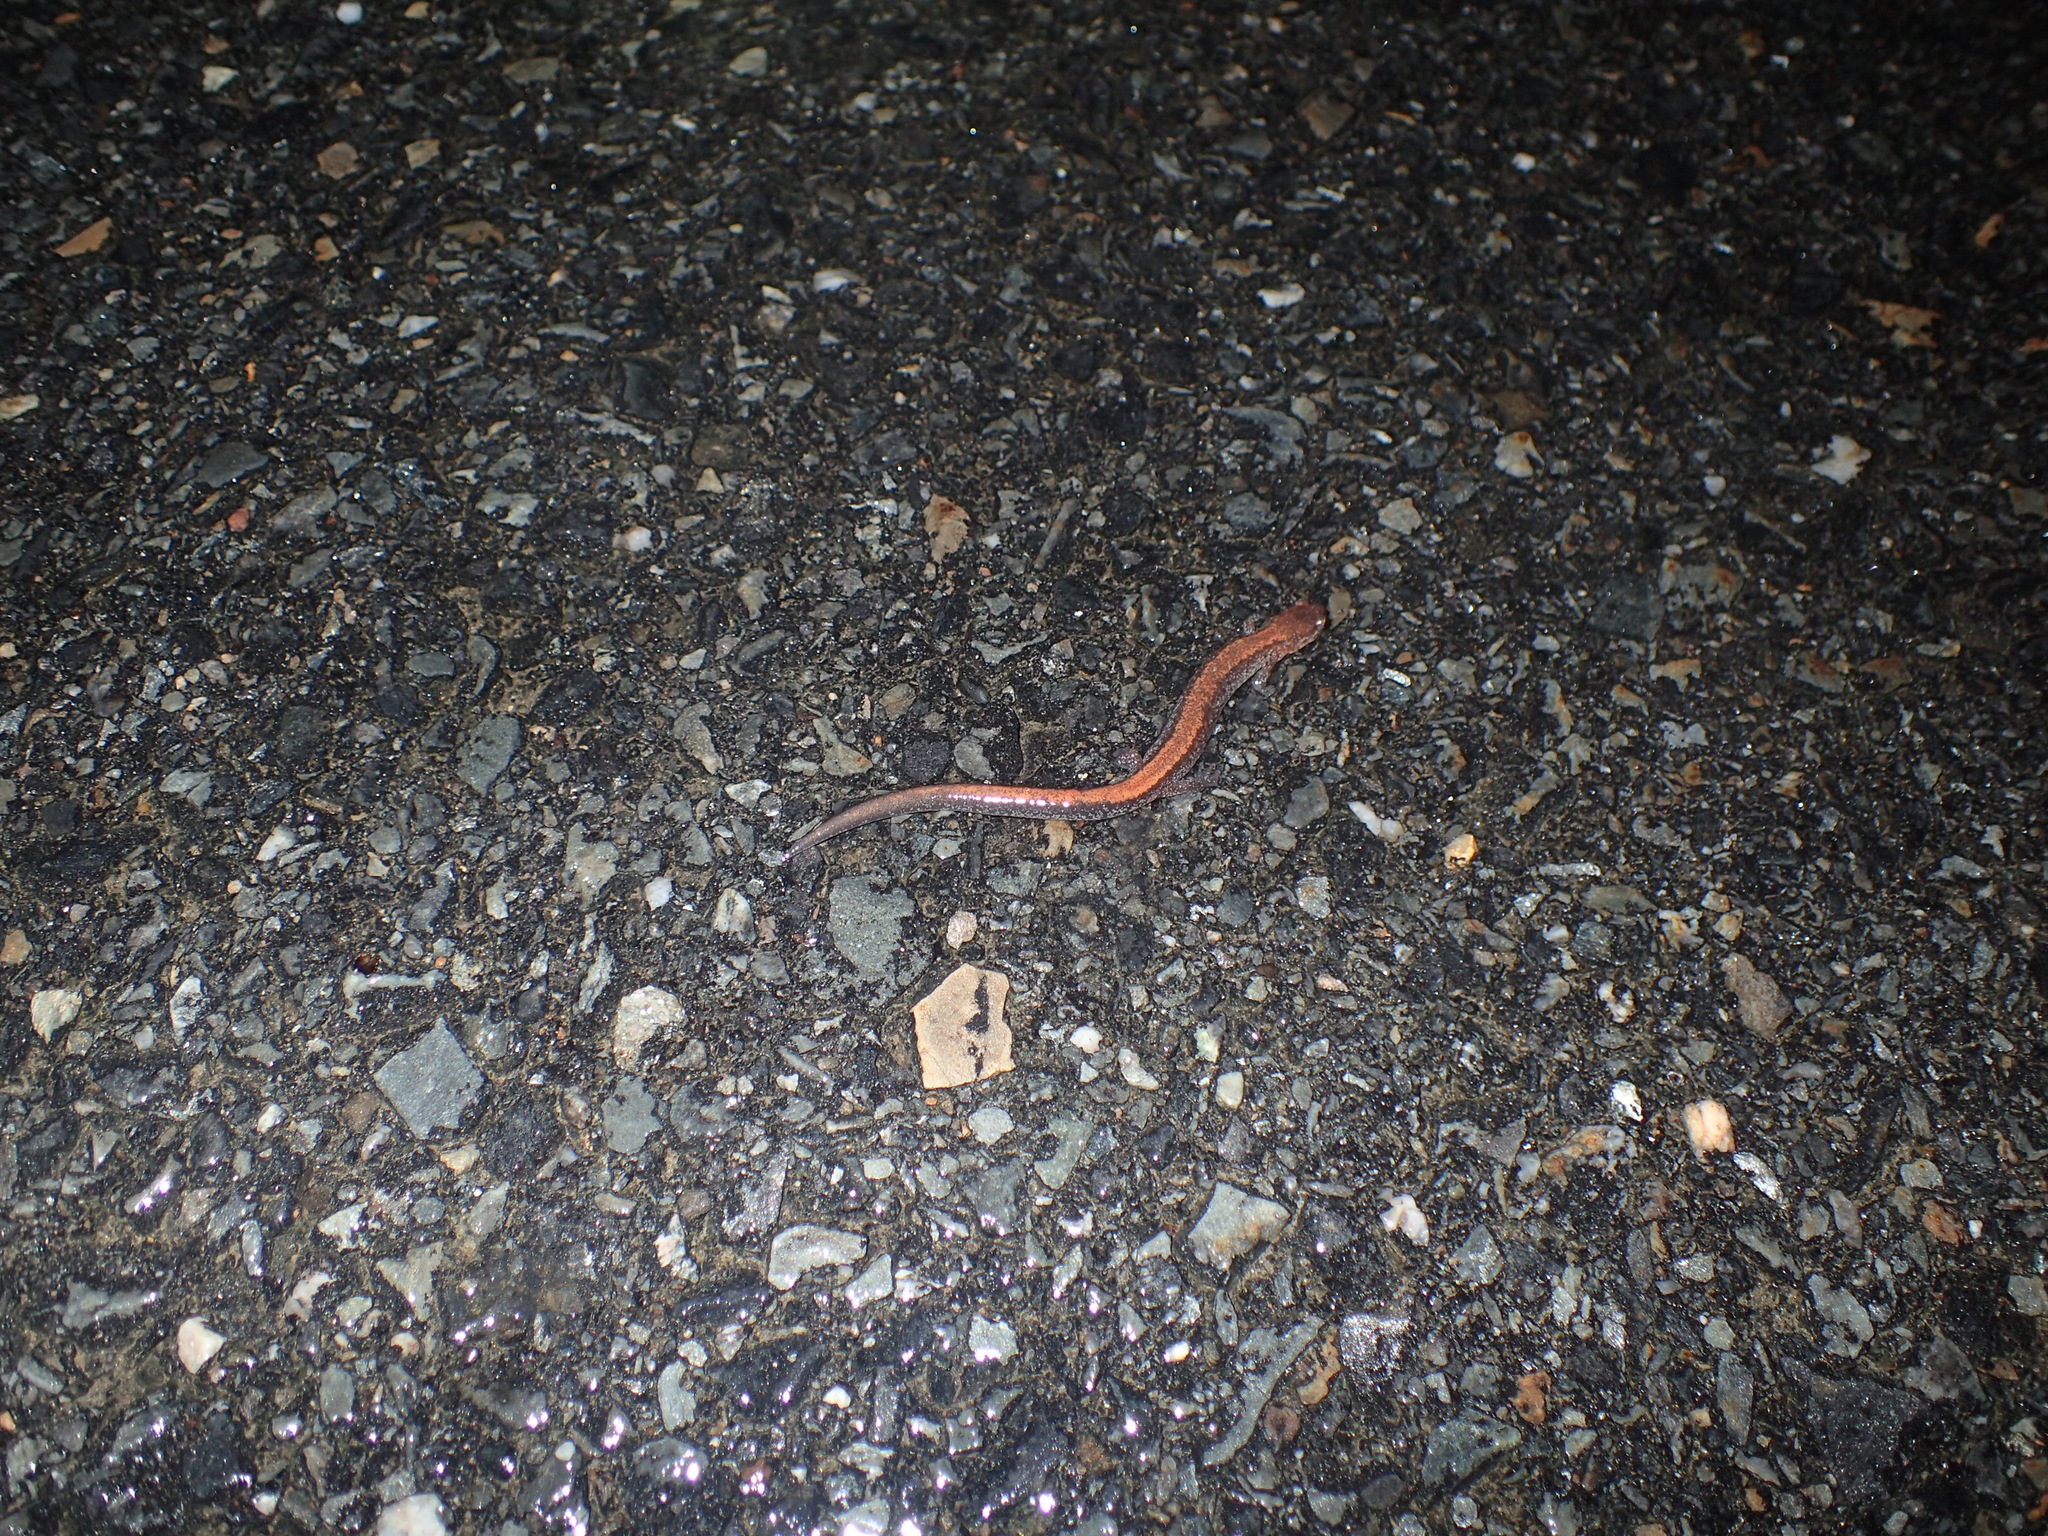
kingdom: Animalia
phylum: Chordata
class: Amphibia
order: Caudata
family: Plethodontidae
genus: Plethodon
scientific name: Plethodon cinereus
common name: Redback salamander
